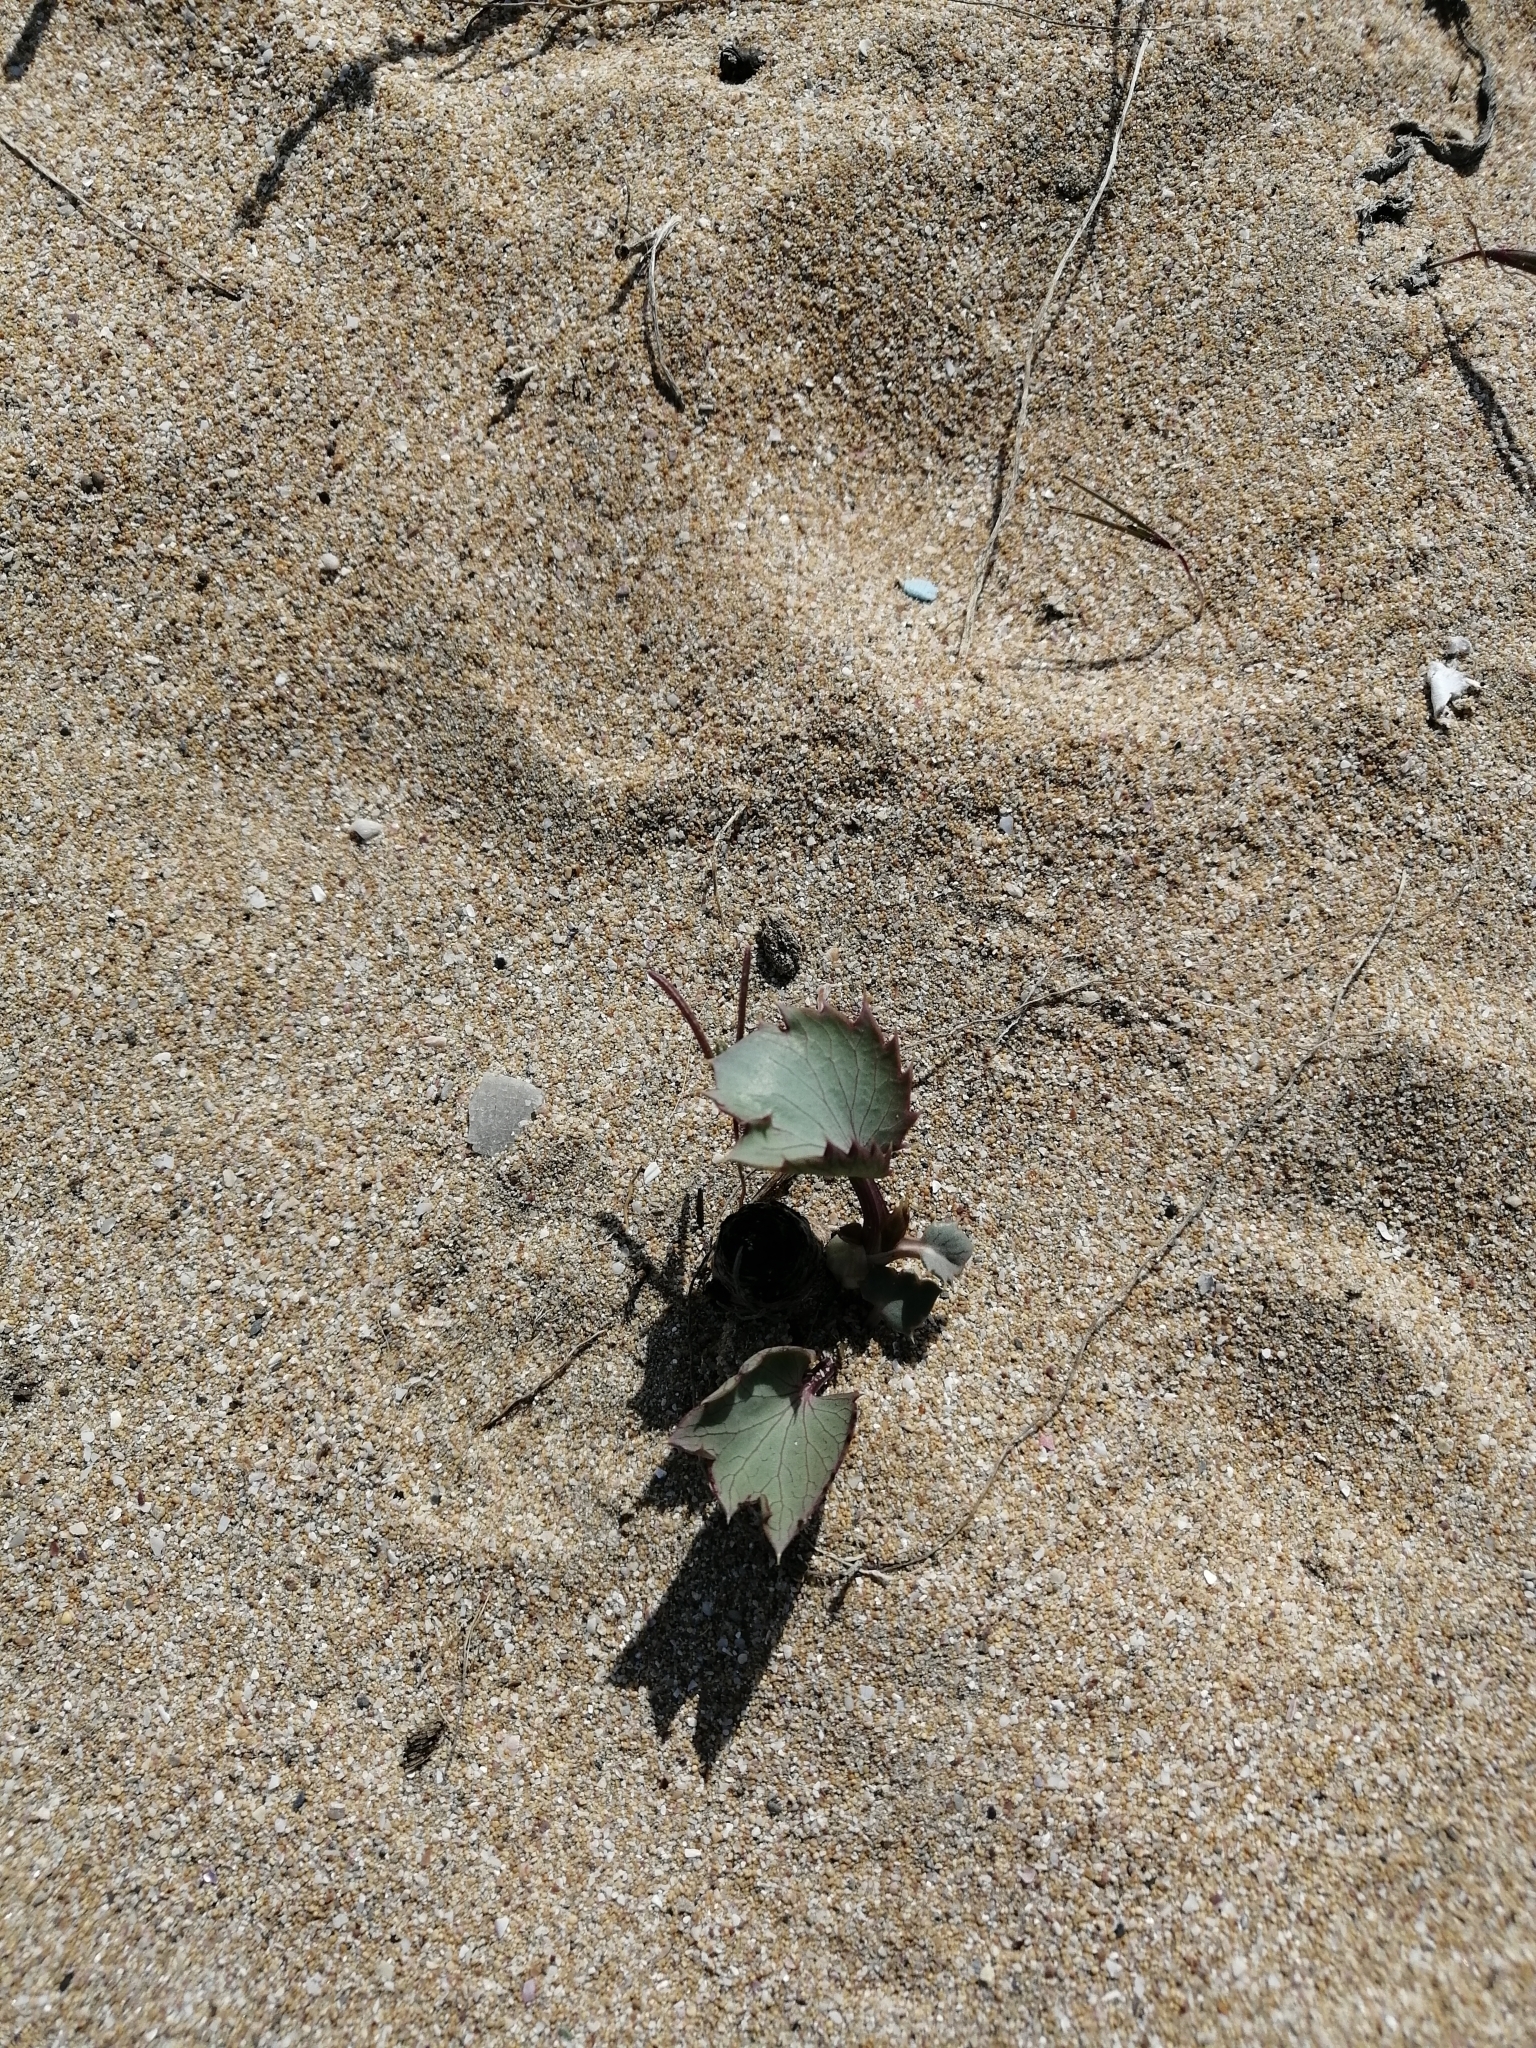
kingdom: Plantae
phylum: Tracheophyta
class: Magnoliopsida
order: Apiales
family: Apiaceae
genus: Eryngium
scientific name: Eryngium maritimum
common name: Sea-holly
